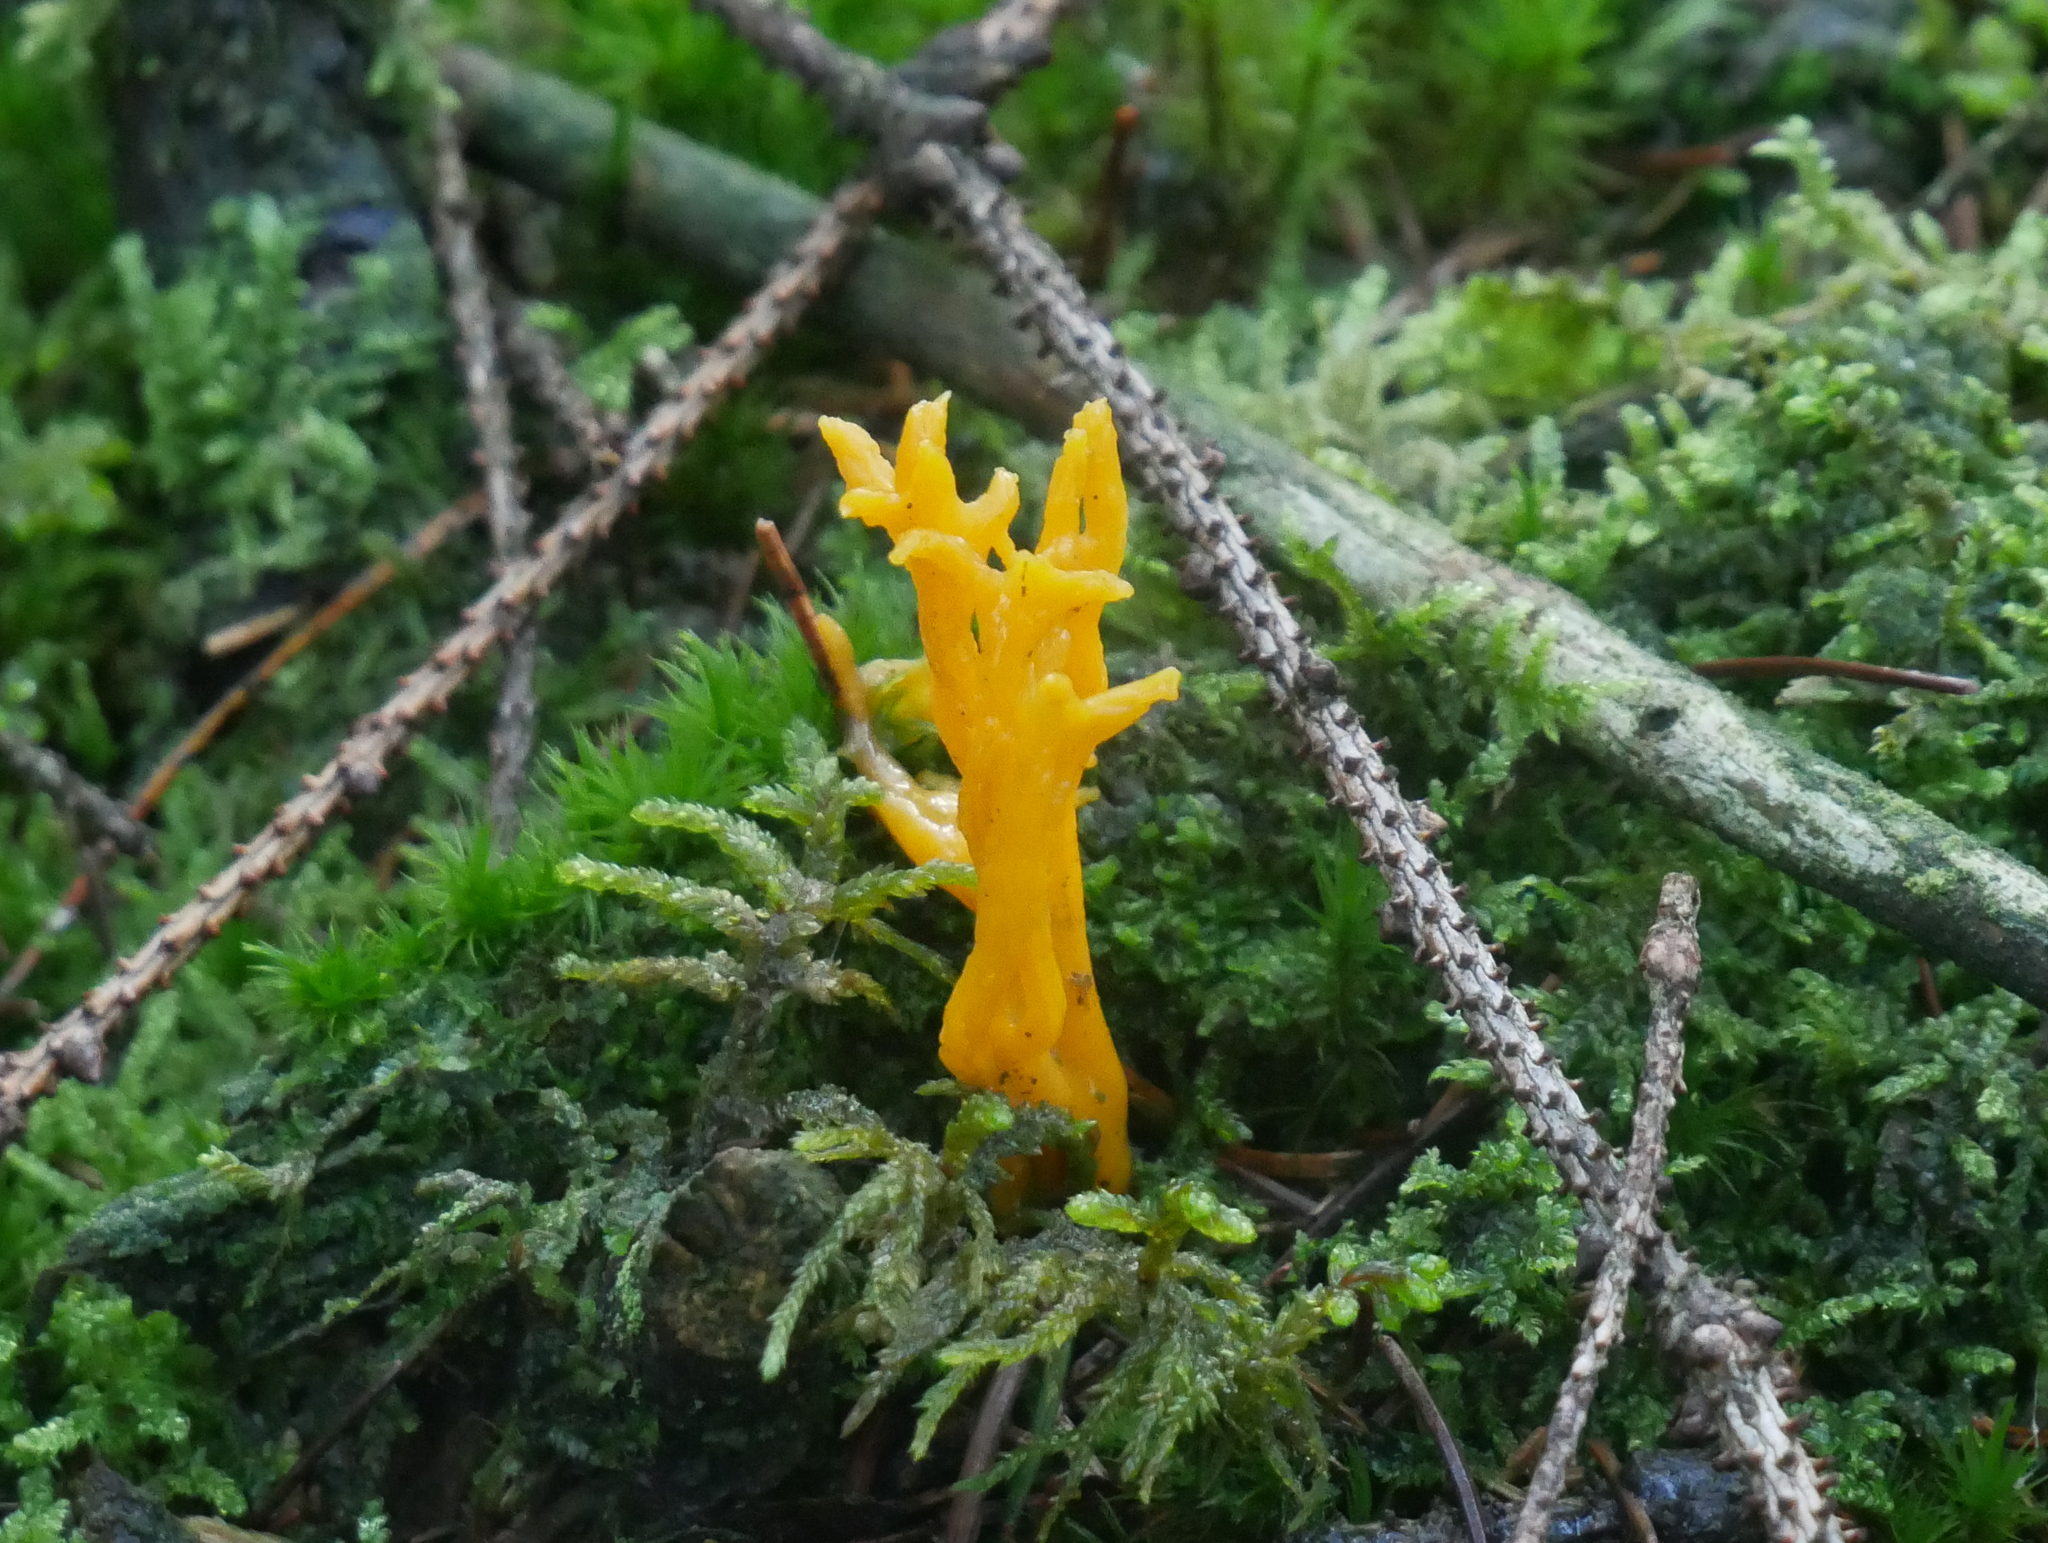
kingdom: Fungi
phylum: Basidiomycota
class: Dacrymycetes
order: Dacrymycetales
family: Dacrymycetaceae
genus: Calocera
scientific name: Calocera viscosa
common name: Yellow stagshorn
